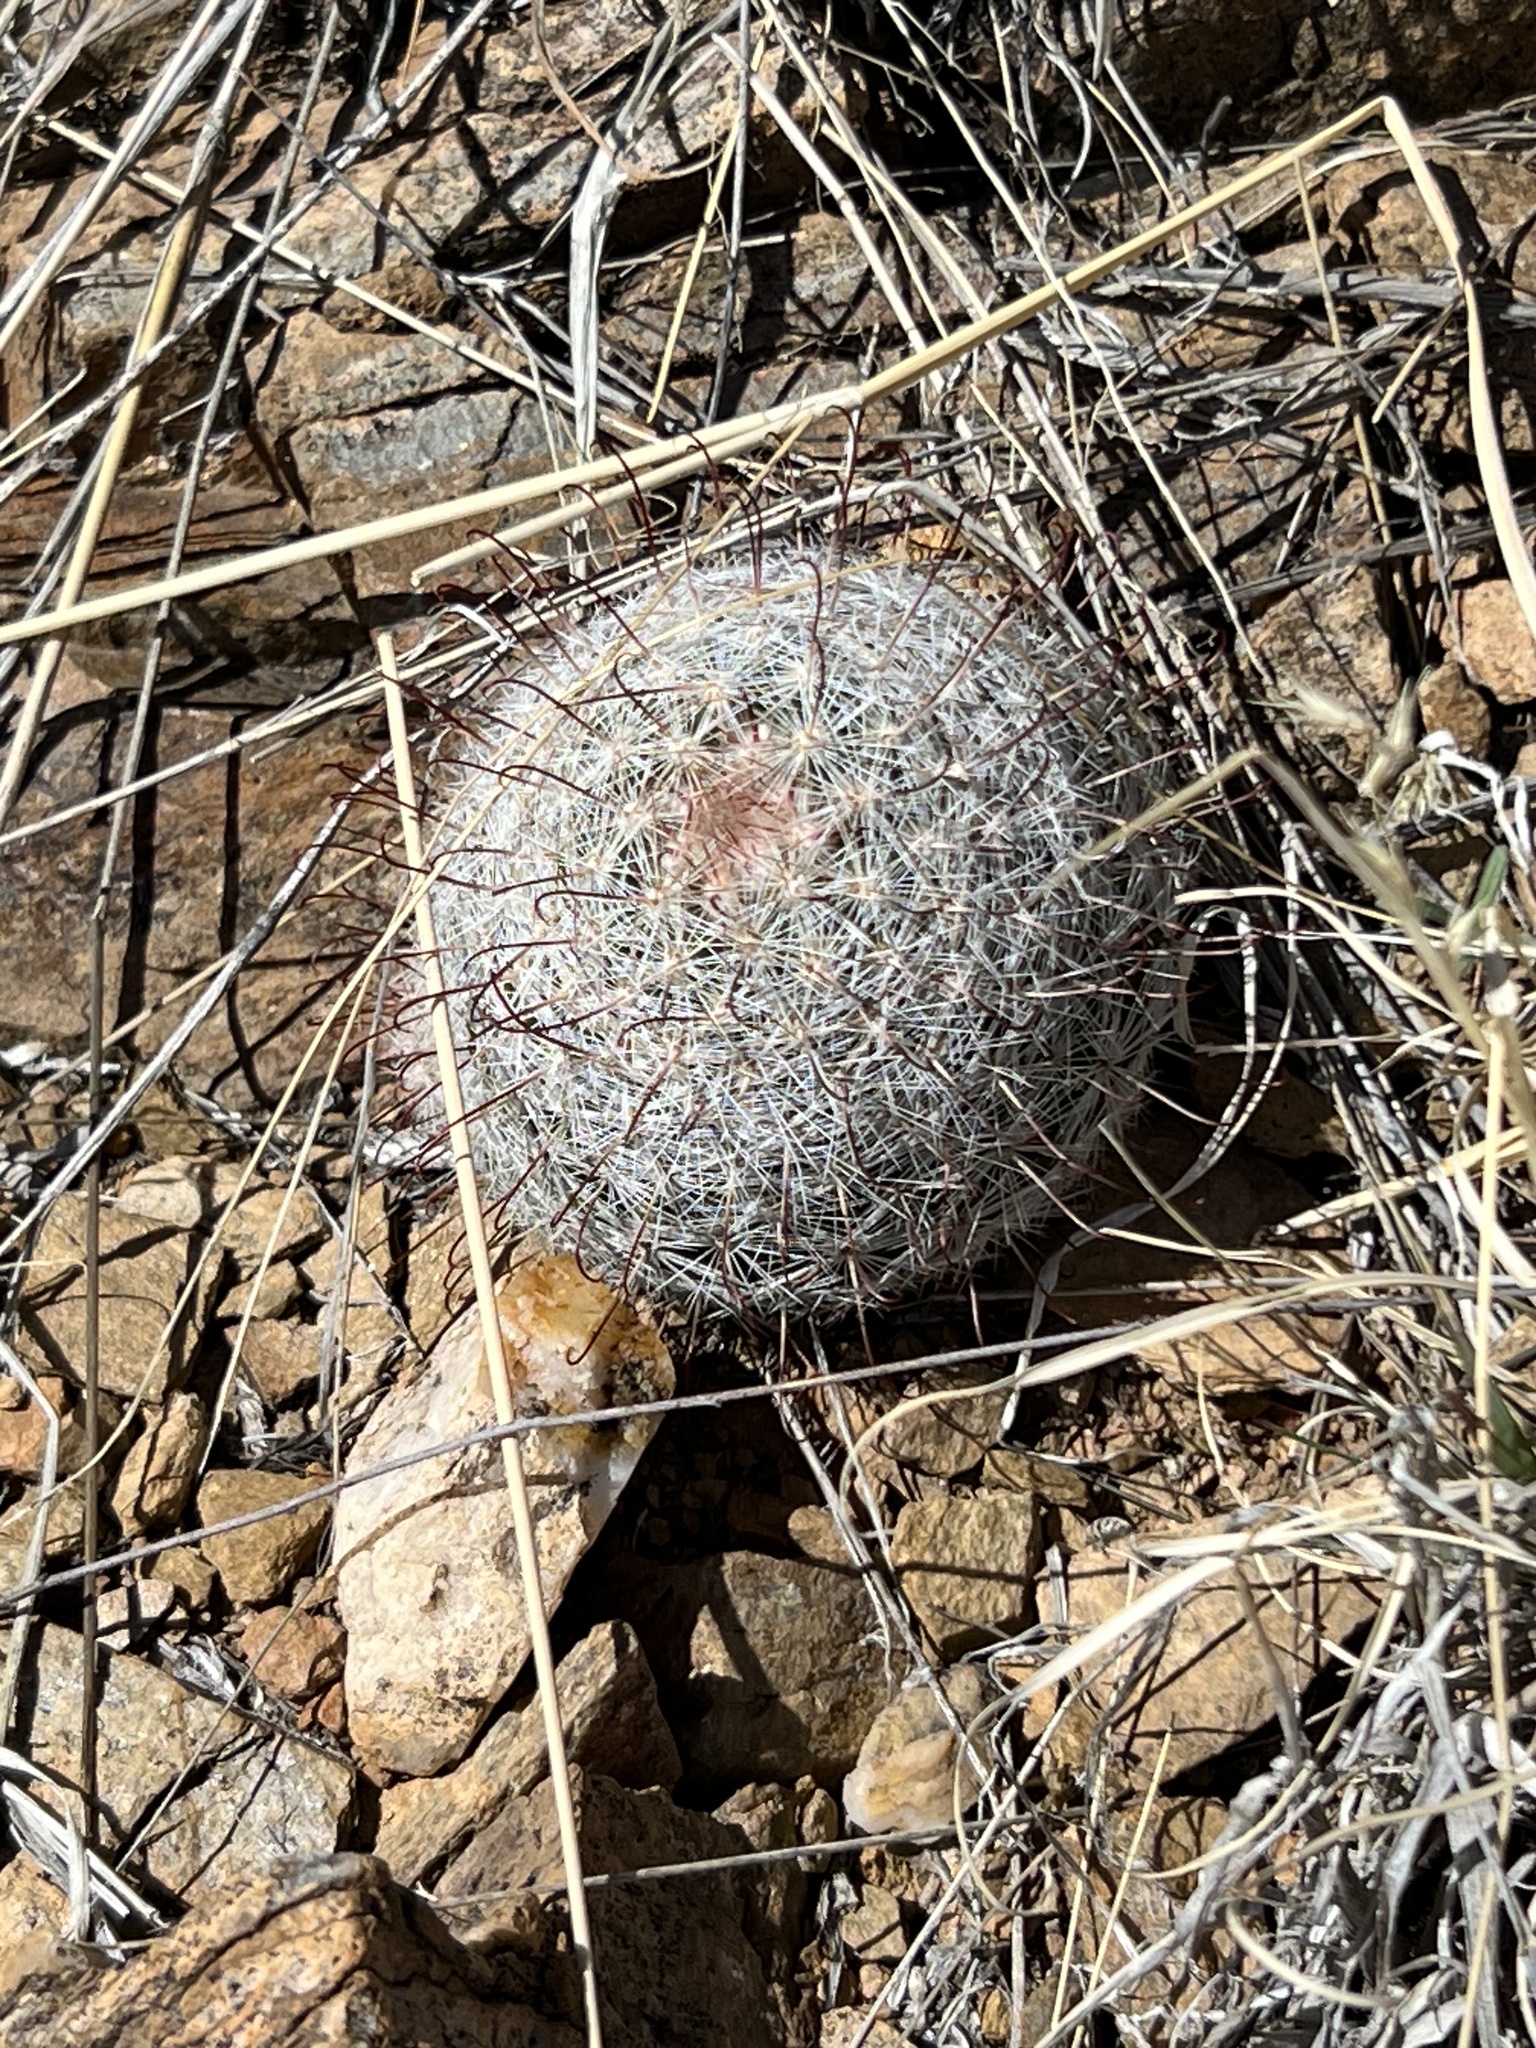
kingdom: Plantae
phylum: Tracheophyta
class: Magnoliopsida
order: Caryophyllales
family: Cactaceae
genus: Cochemiea
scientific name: Cochemiea grahamii
